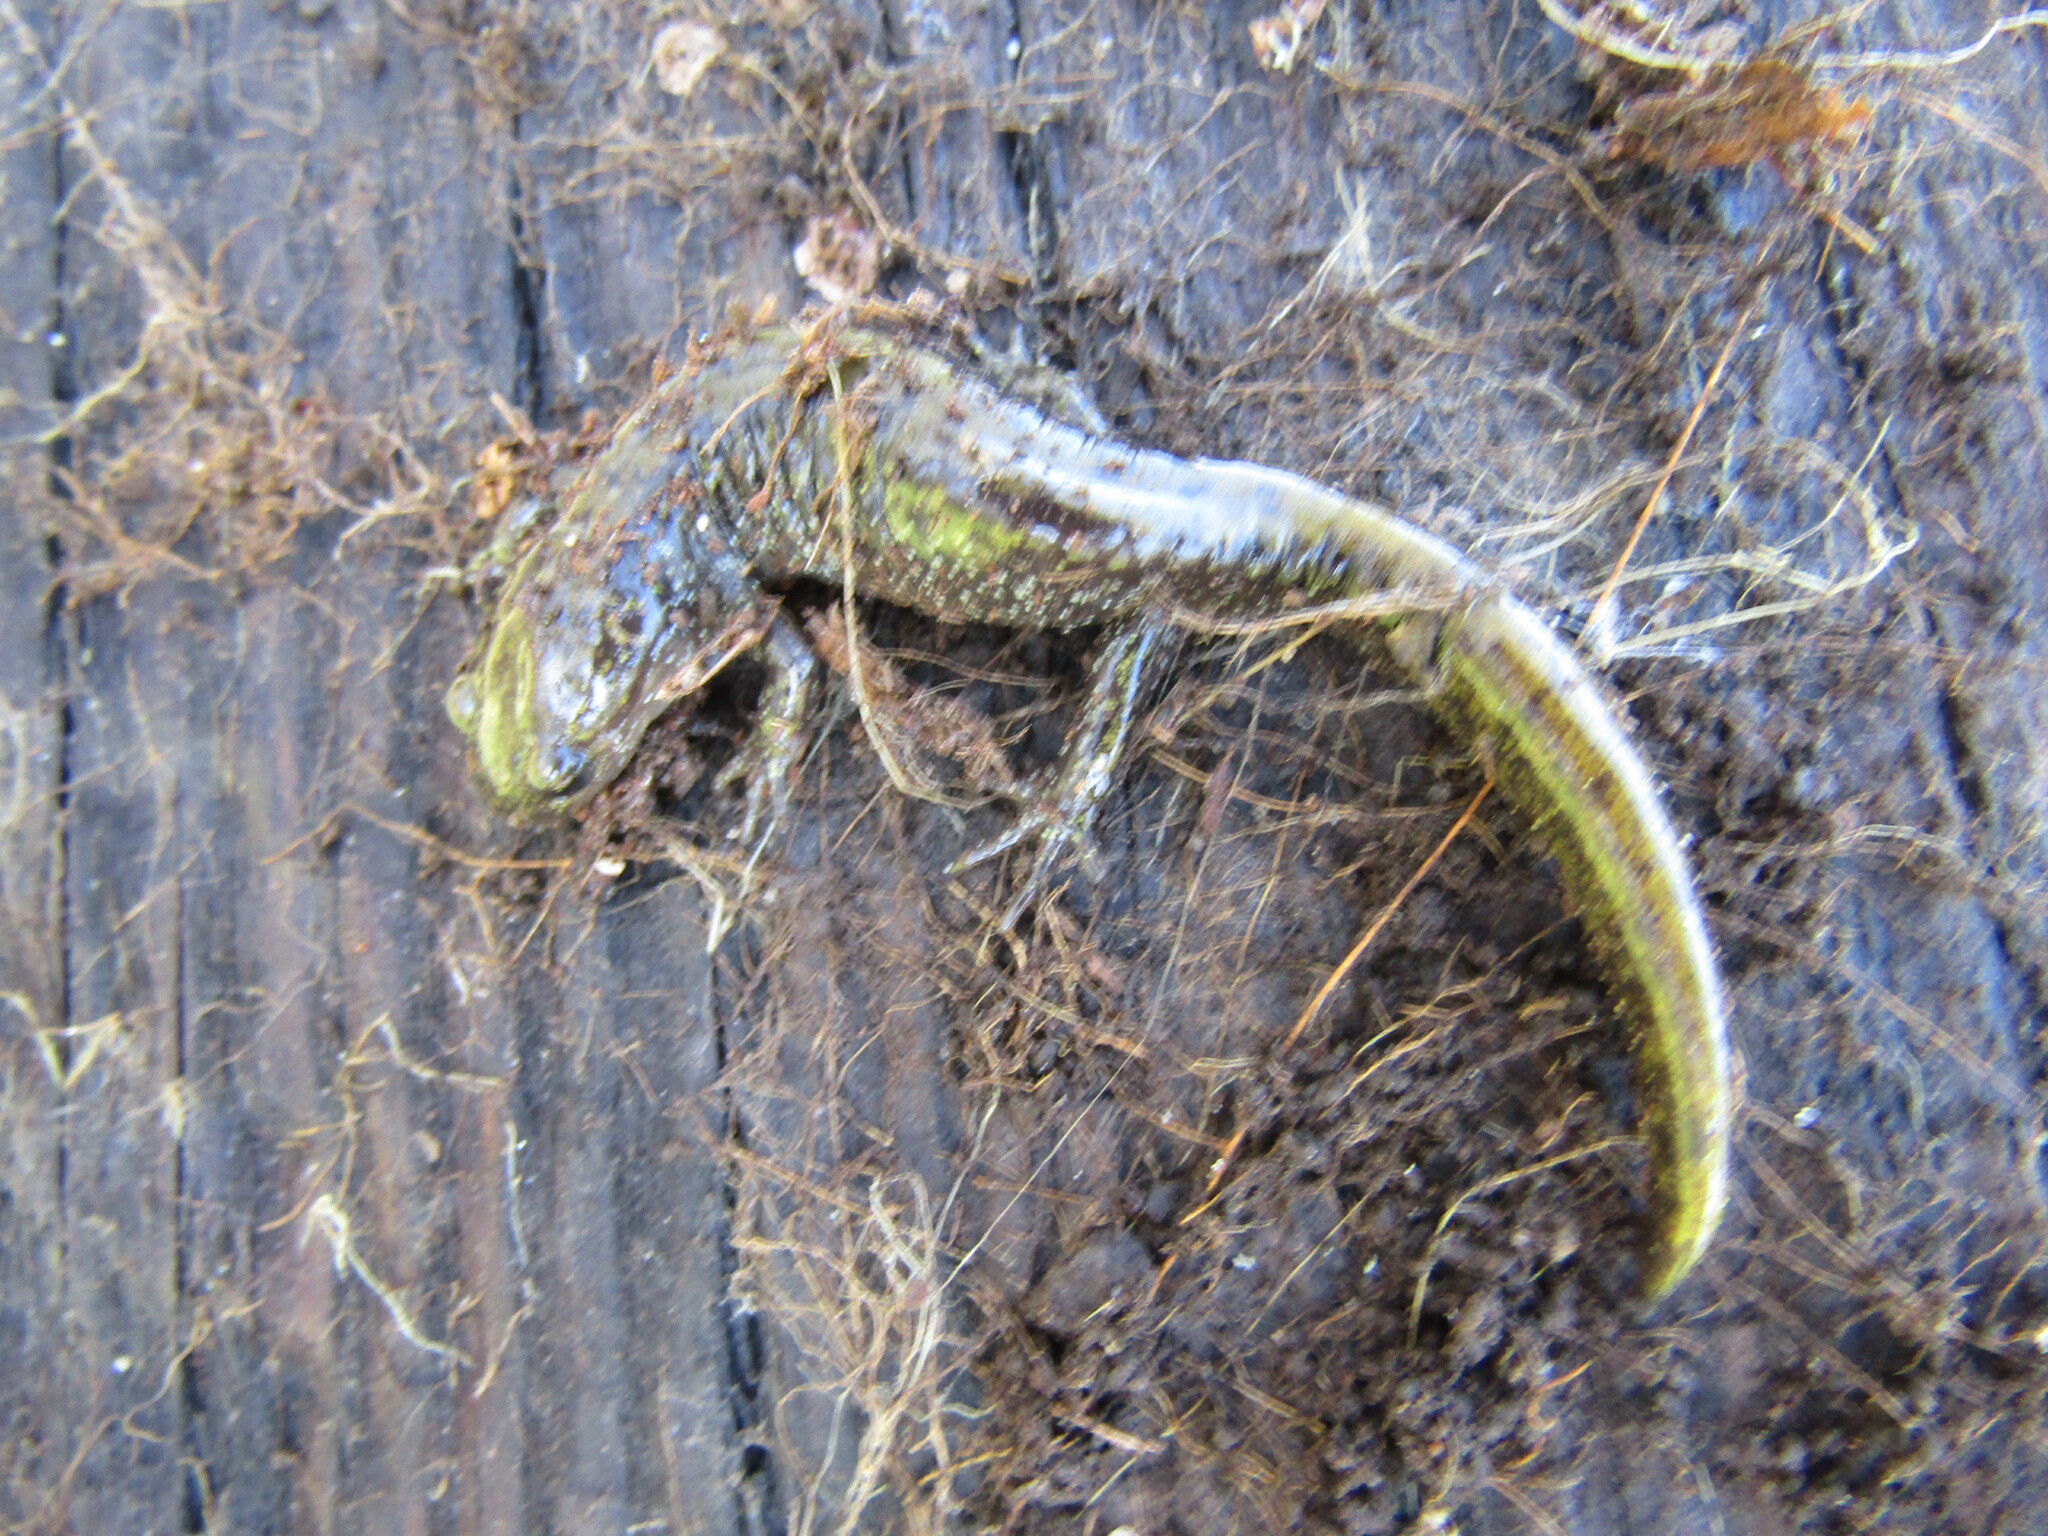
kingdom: Animalia
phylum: Chordata
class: Amphibia
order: Caudata
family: Ambystomatidae
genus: Ambystoma
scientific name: Ambystoma macrodactylum
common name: Long-toed salamander
